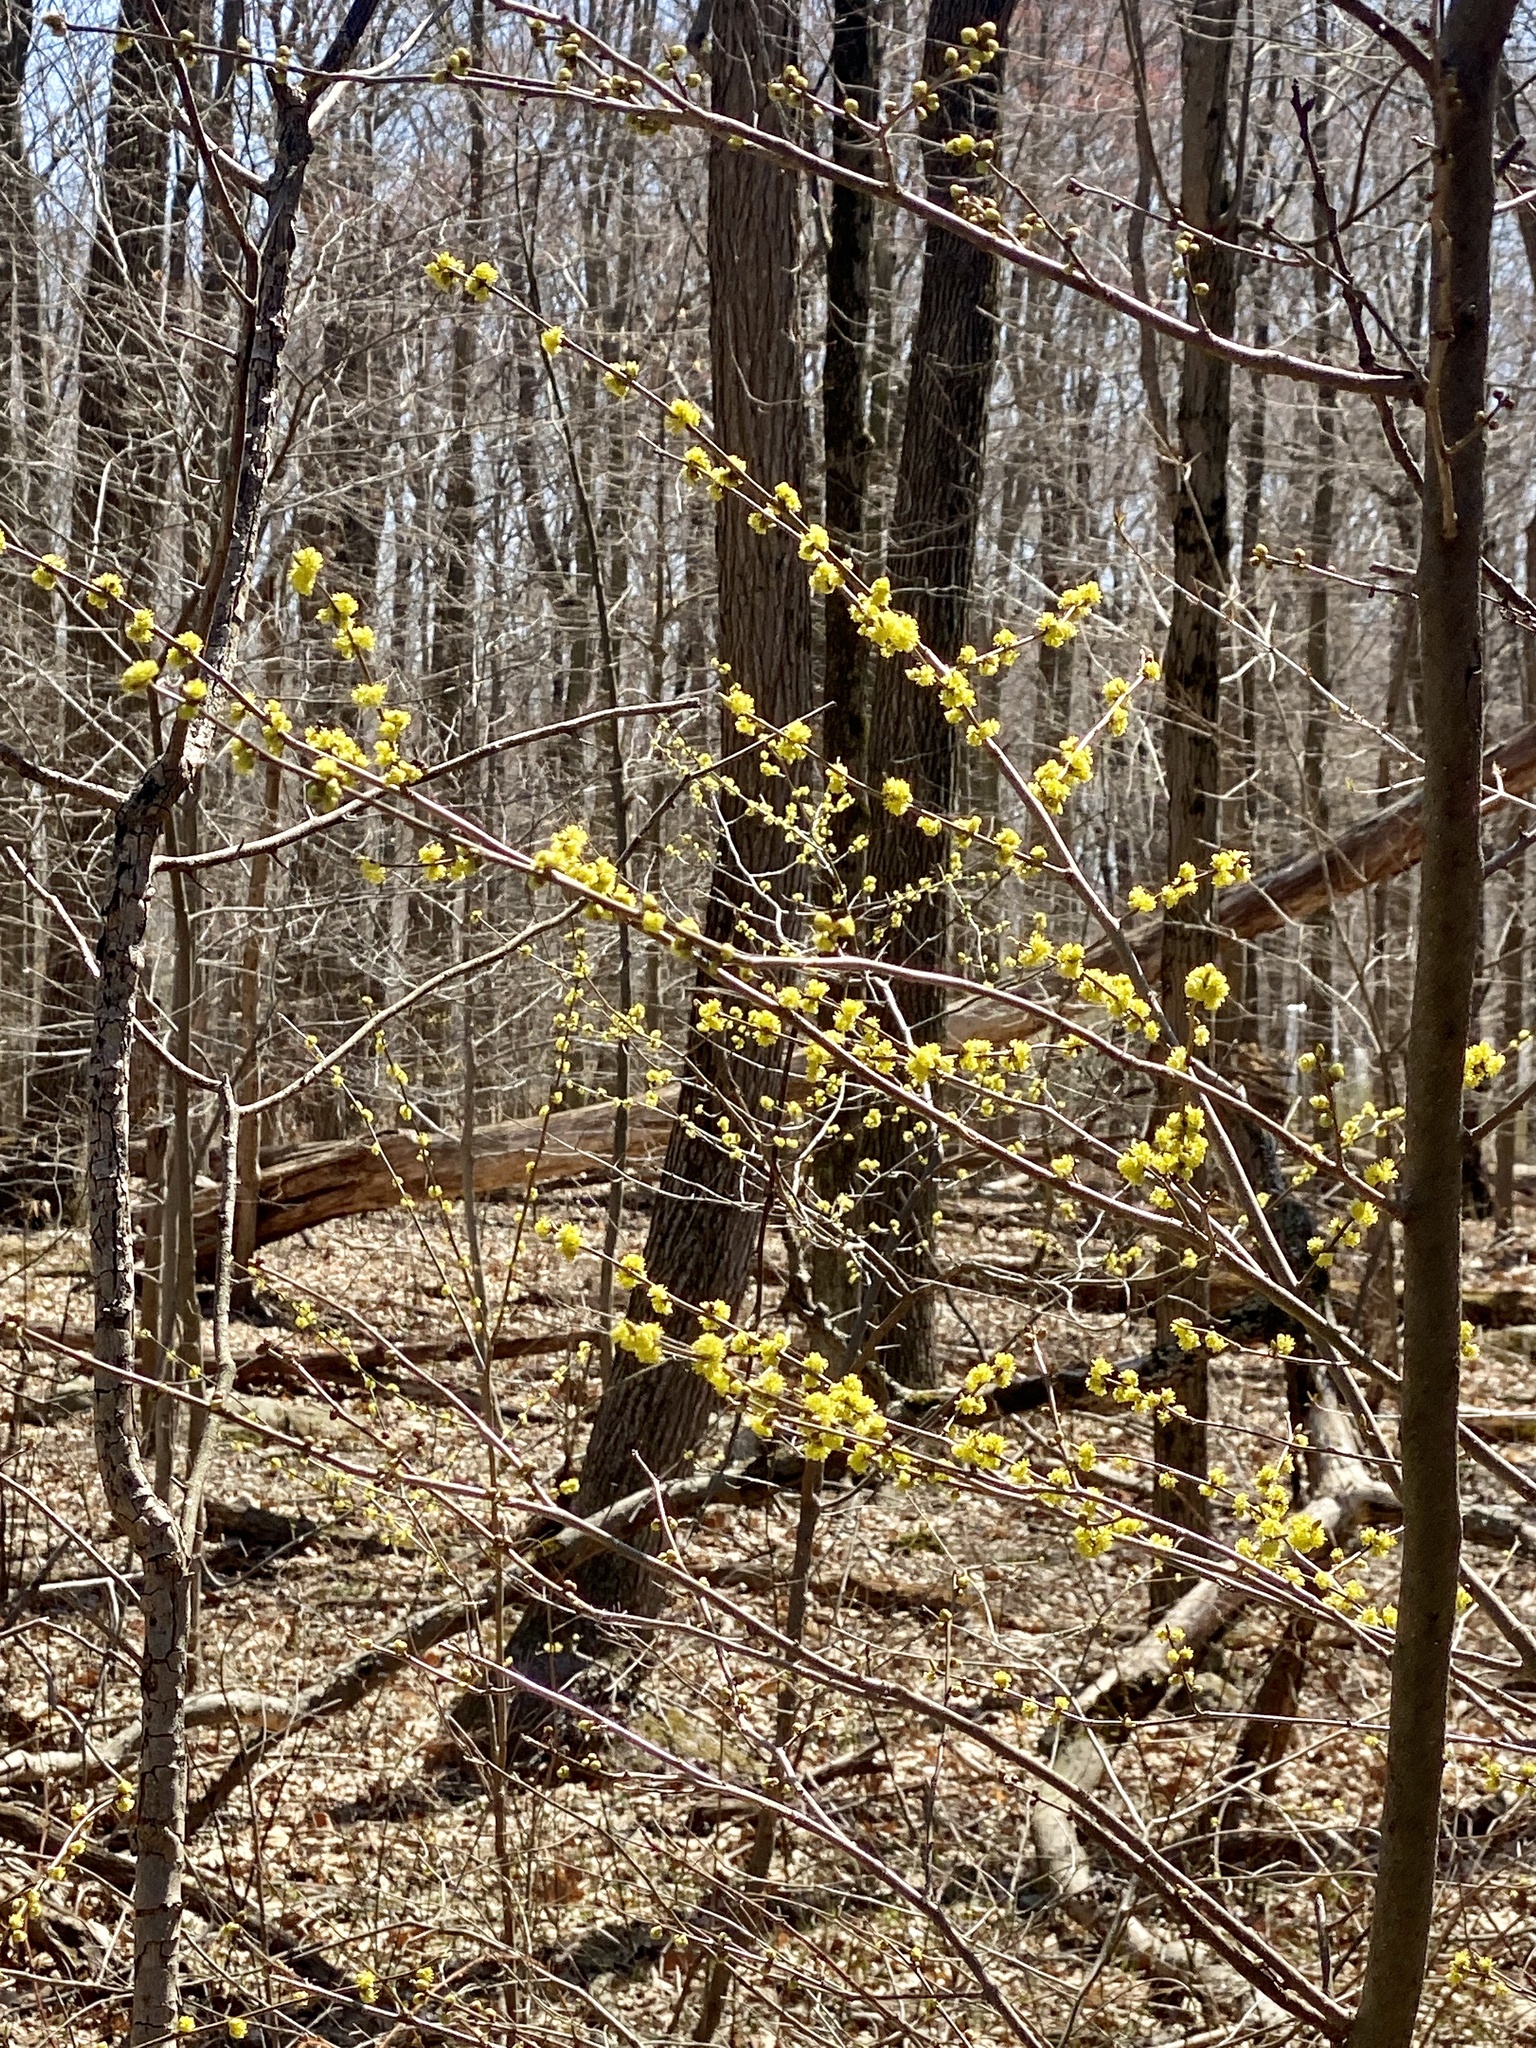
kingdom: Plantae
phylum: Tracheophyta
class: Magnoliopsida
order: Laurales
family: Lauraceae
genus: Lindera
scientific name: Lindera benzoin
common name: Spicebush
